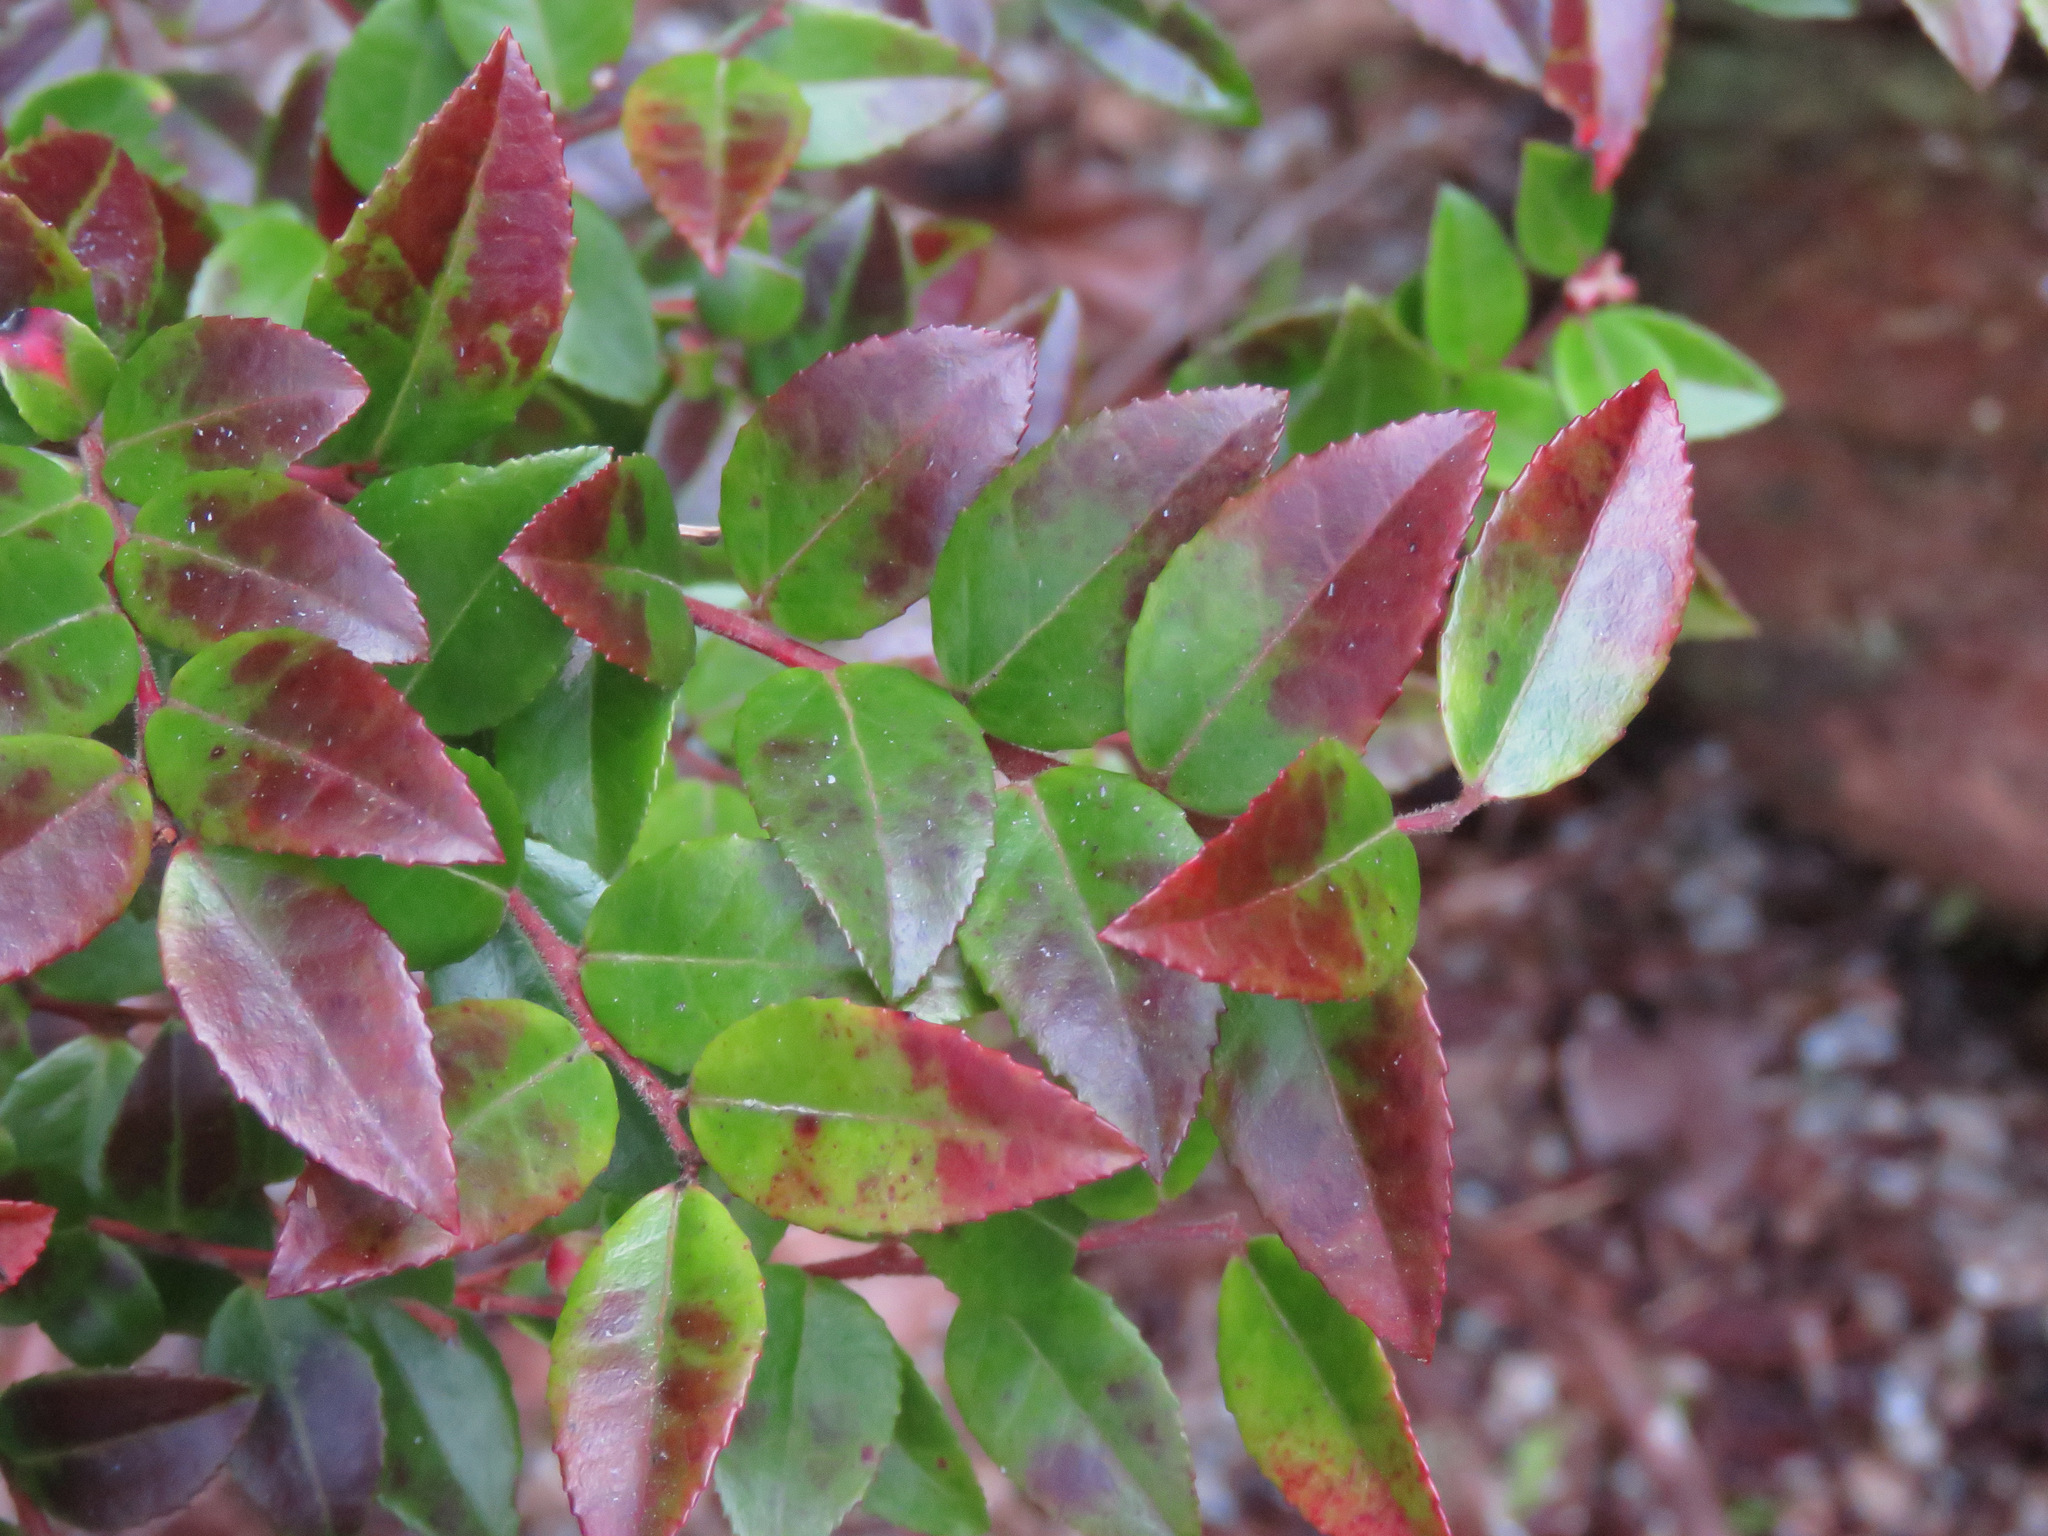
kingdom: Plantae
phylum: Tracheophyta
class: Magnoliopsida
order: Ericales
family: Ericaceae
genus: Vaccinium
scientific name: Vaccinium ovatum
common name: California-huckleberry
